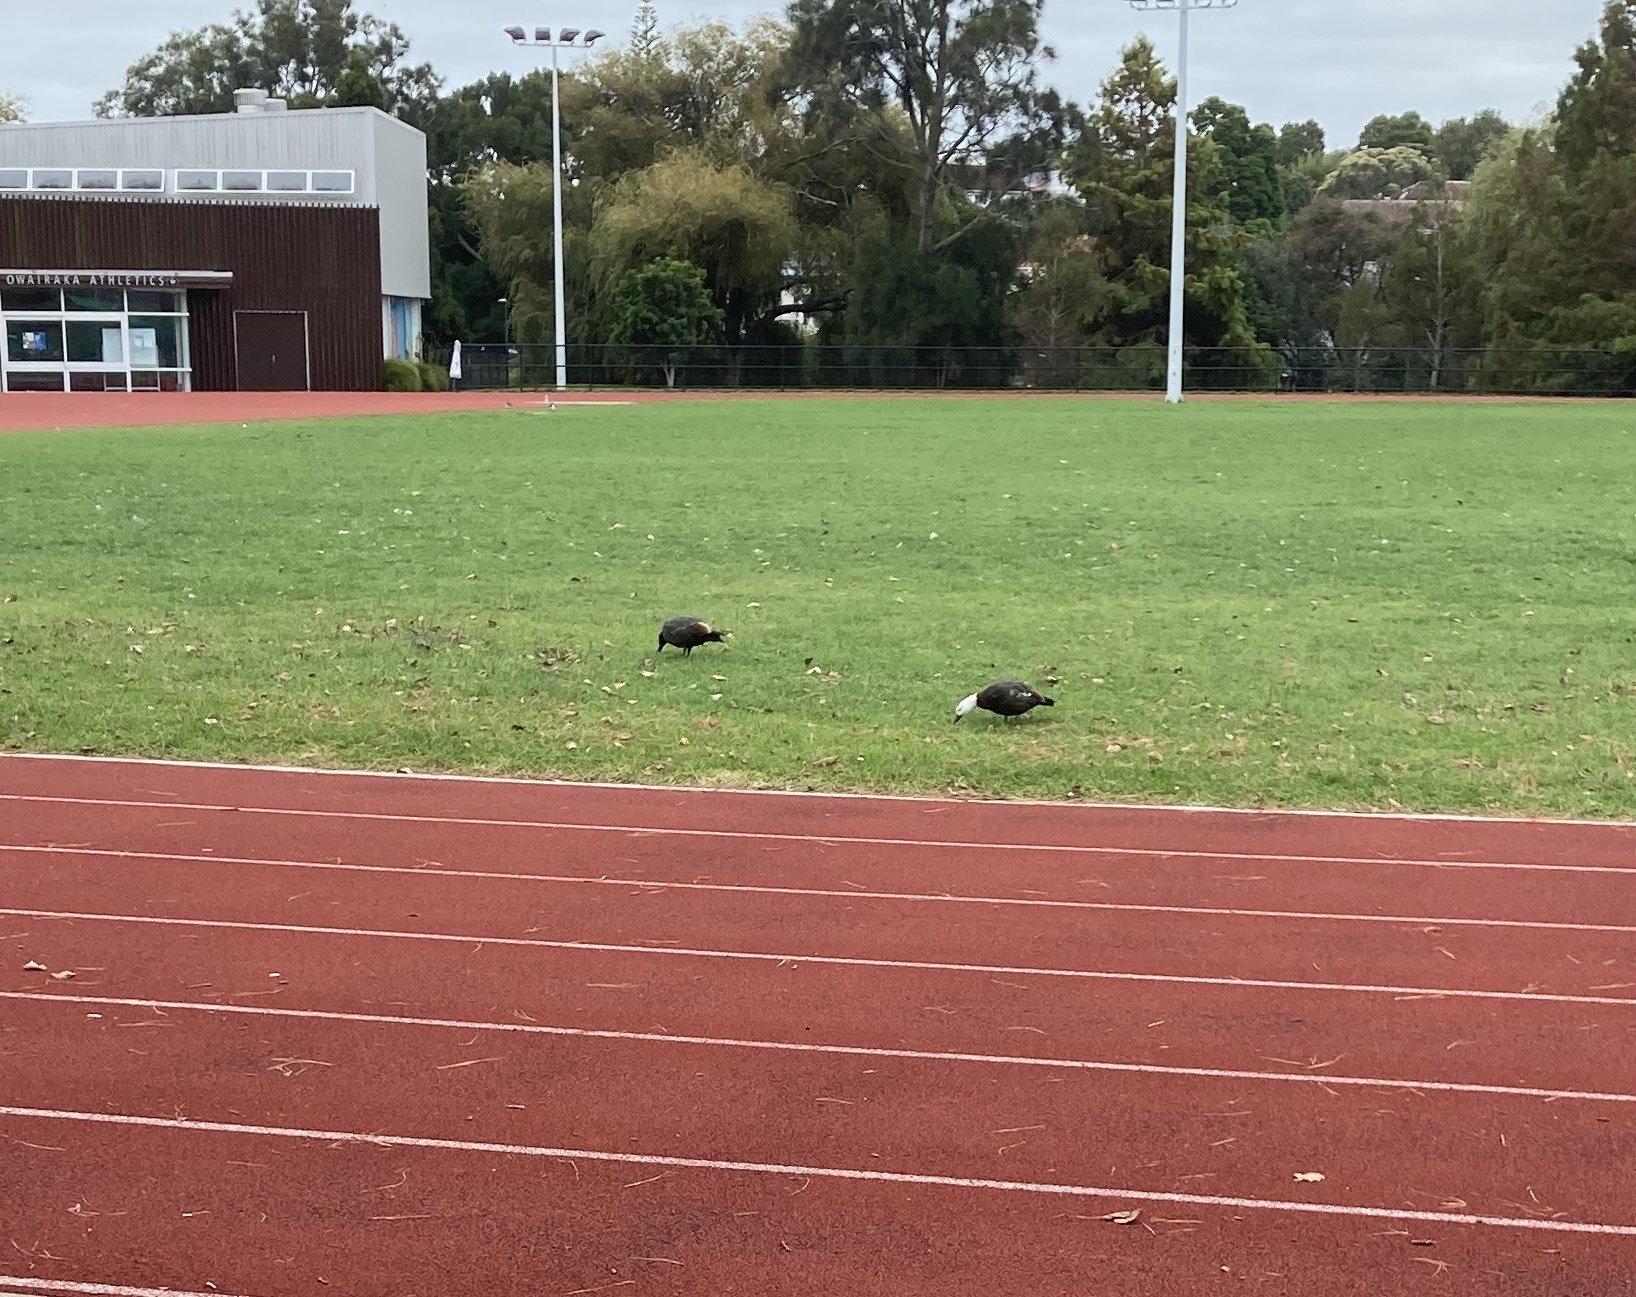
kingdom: Animalia
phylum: Chordata
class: Aves
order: Anseriformes
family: Anatidae
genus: Tadorna
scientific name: Tadorna variegata
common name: Paradise shelduck
